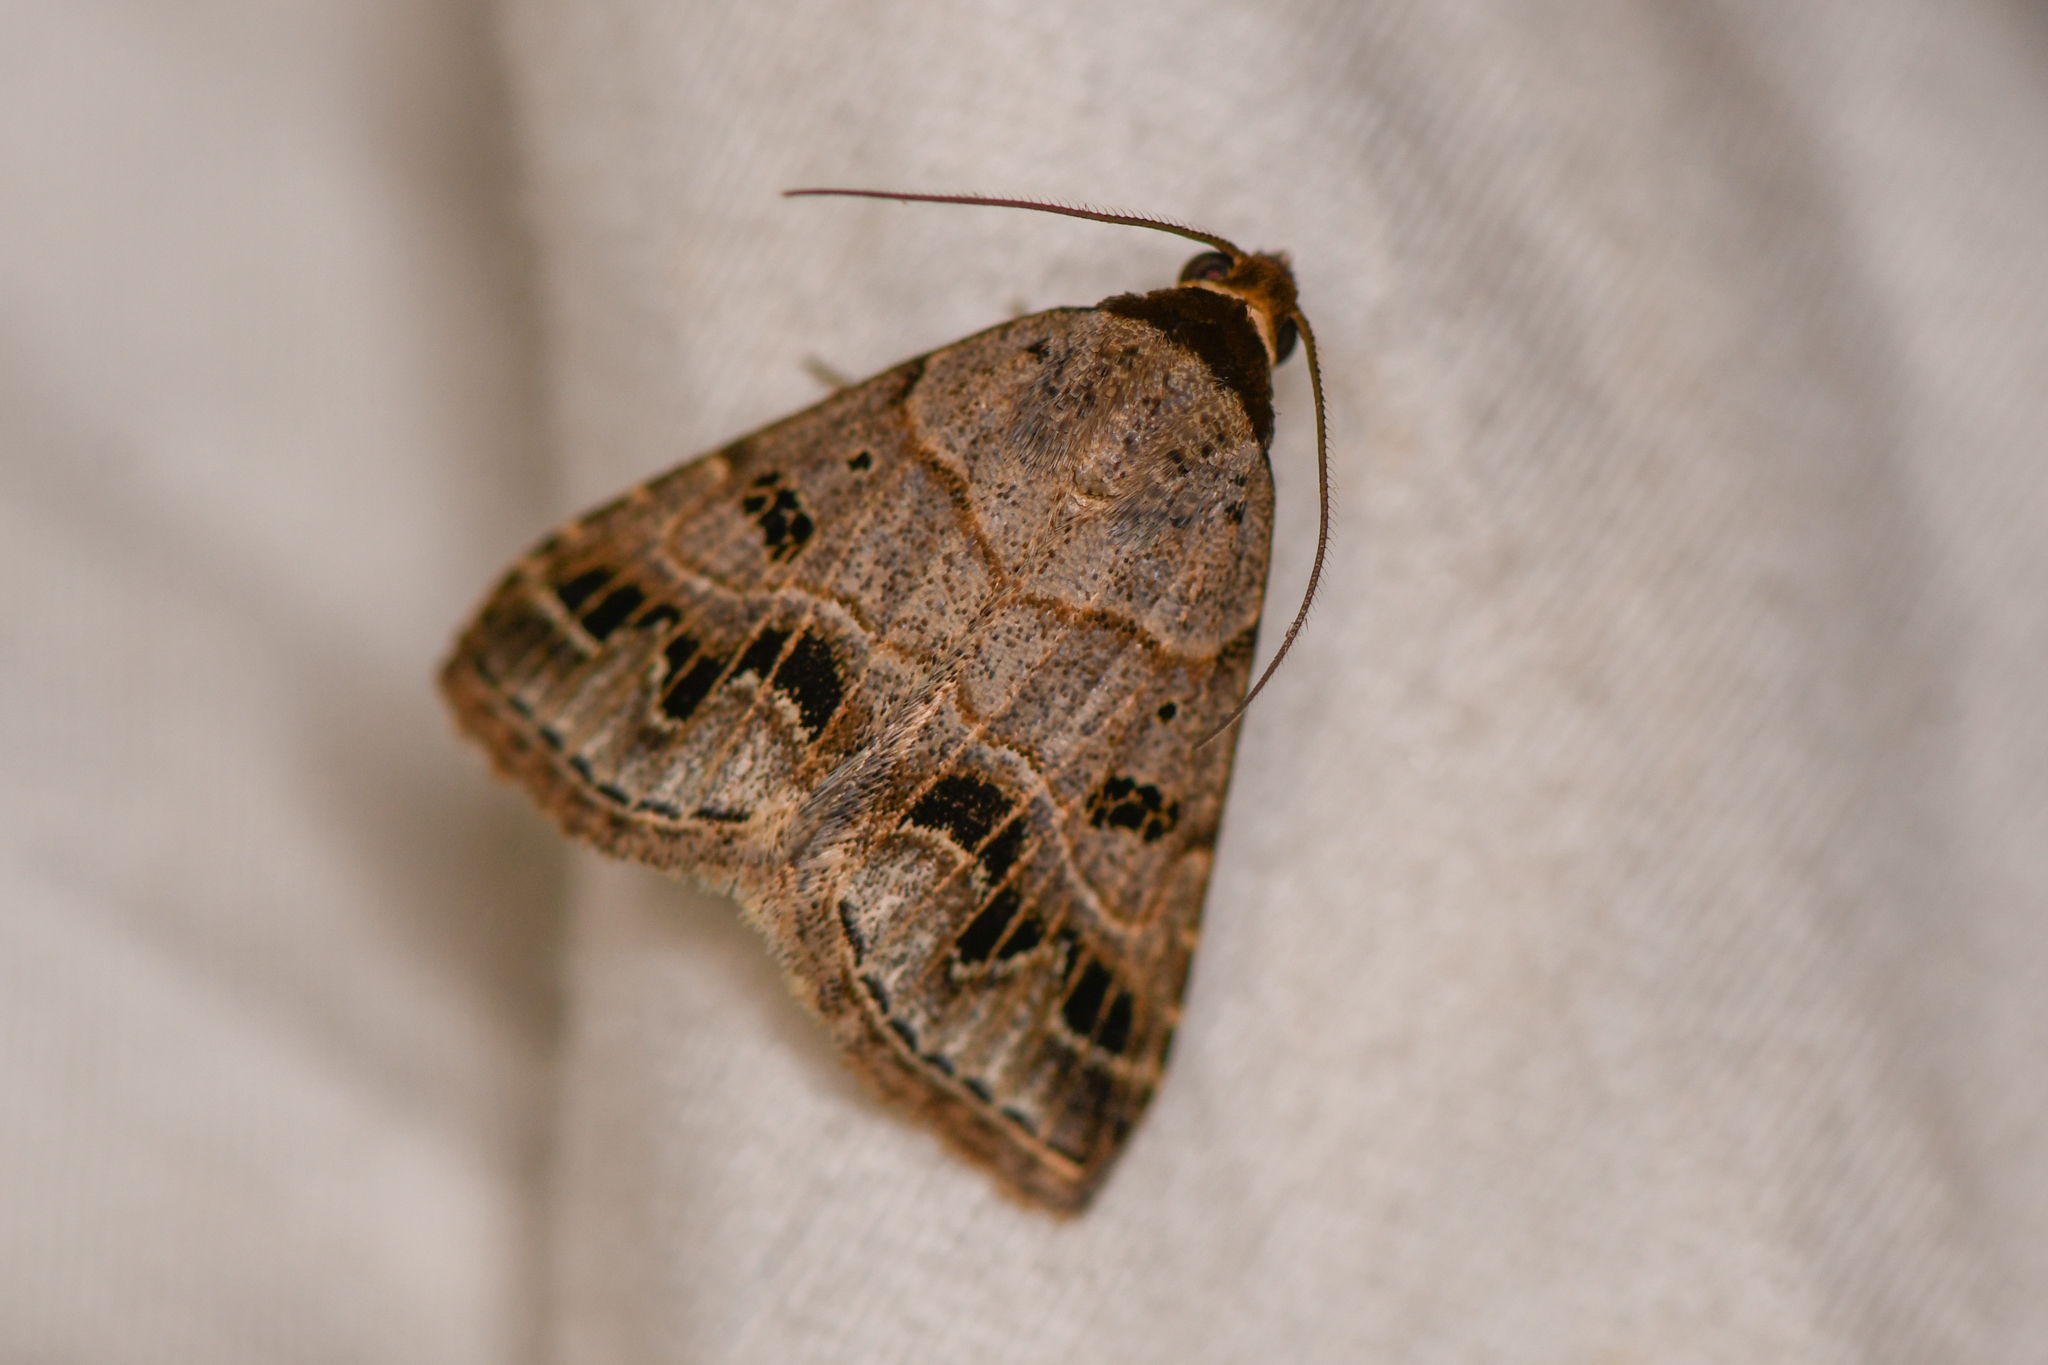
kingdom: Animalia
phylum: Arthropoda
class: Insecta
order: Lepidoptera
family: Erebidae
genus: Glympis
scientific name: Glympis concors
